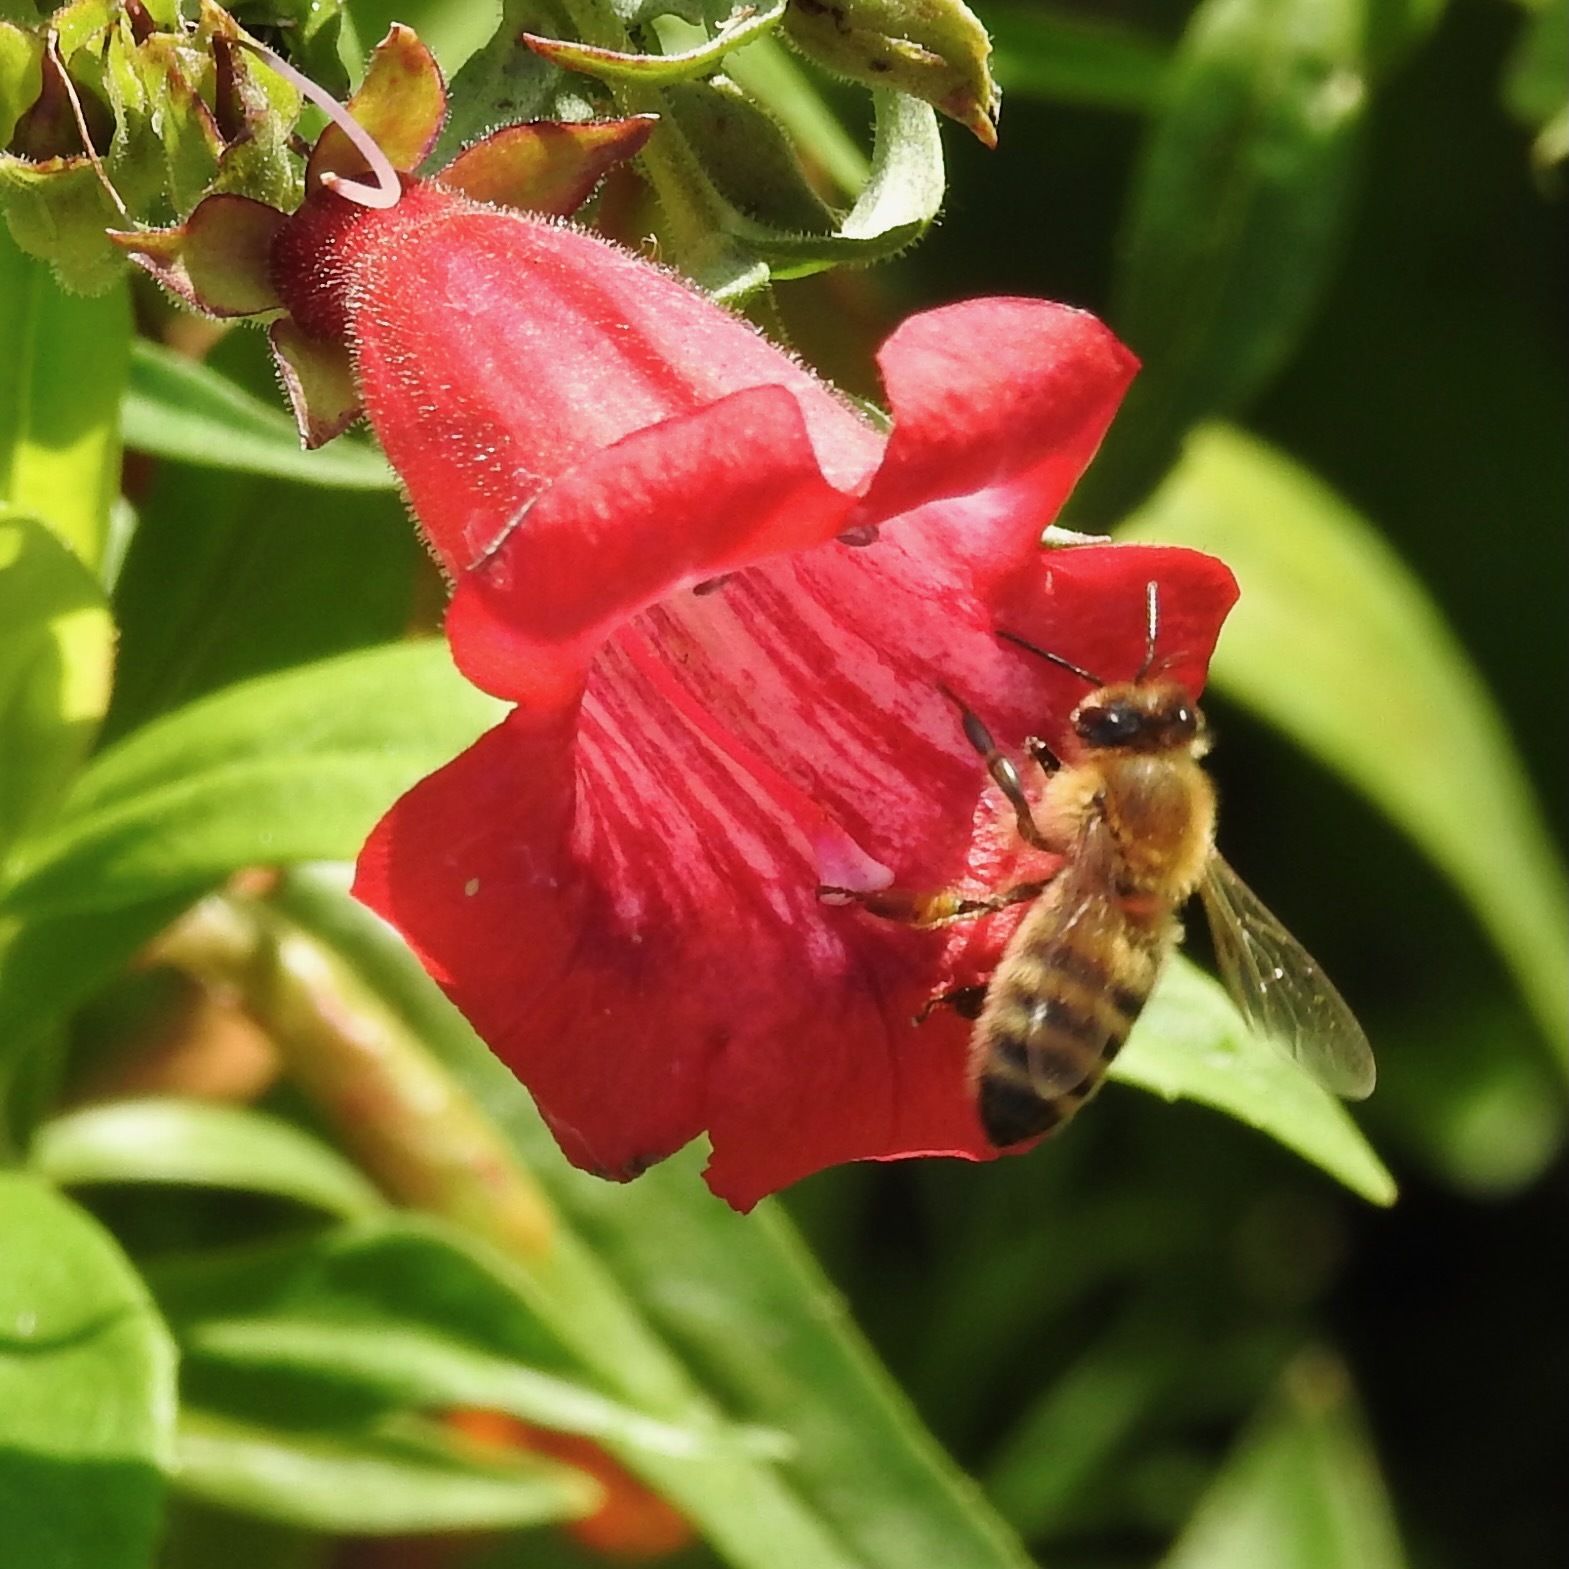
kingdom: Animalia
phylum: Arthropoda
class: Insecta
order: Hymenoptera
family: Apidae
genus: Apis
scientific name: Apis mellifera
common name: Honey bee
